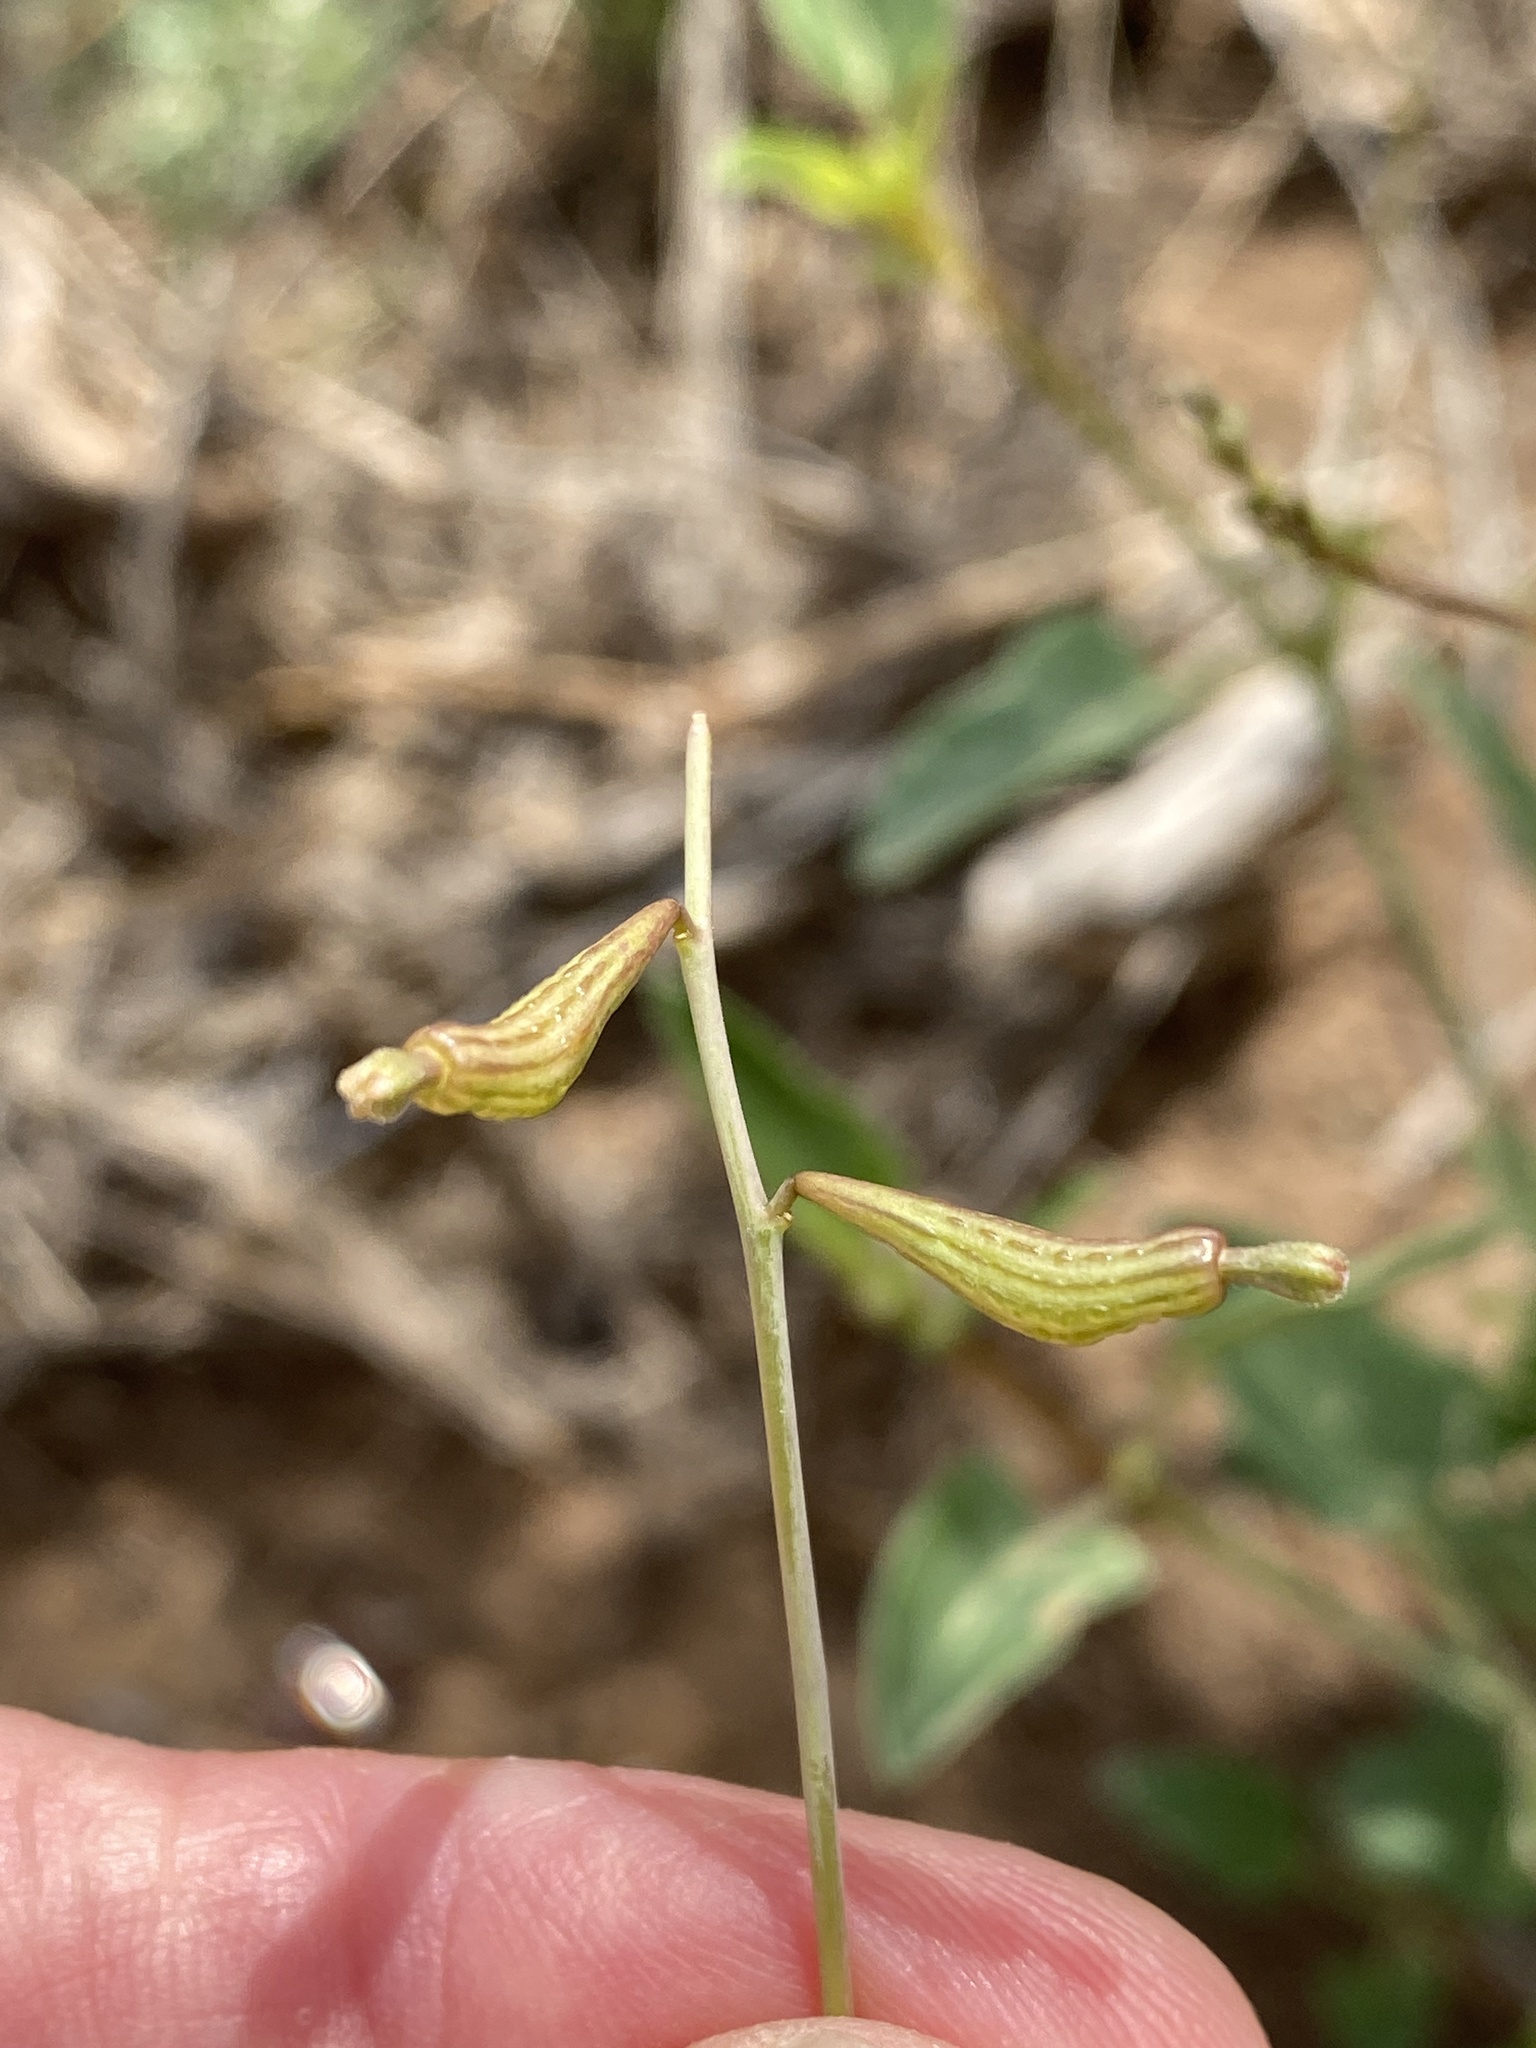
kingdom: Plantae
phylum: Tracheophyta
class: Magnoliopsida
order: Caryophyllales
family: Nyctaginaceae
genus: Cyphomeris
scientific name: Cyphomeris gypsophiloides
